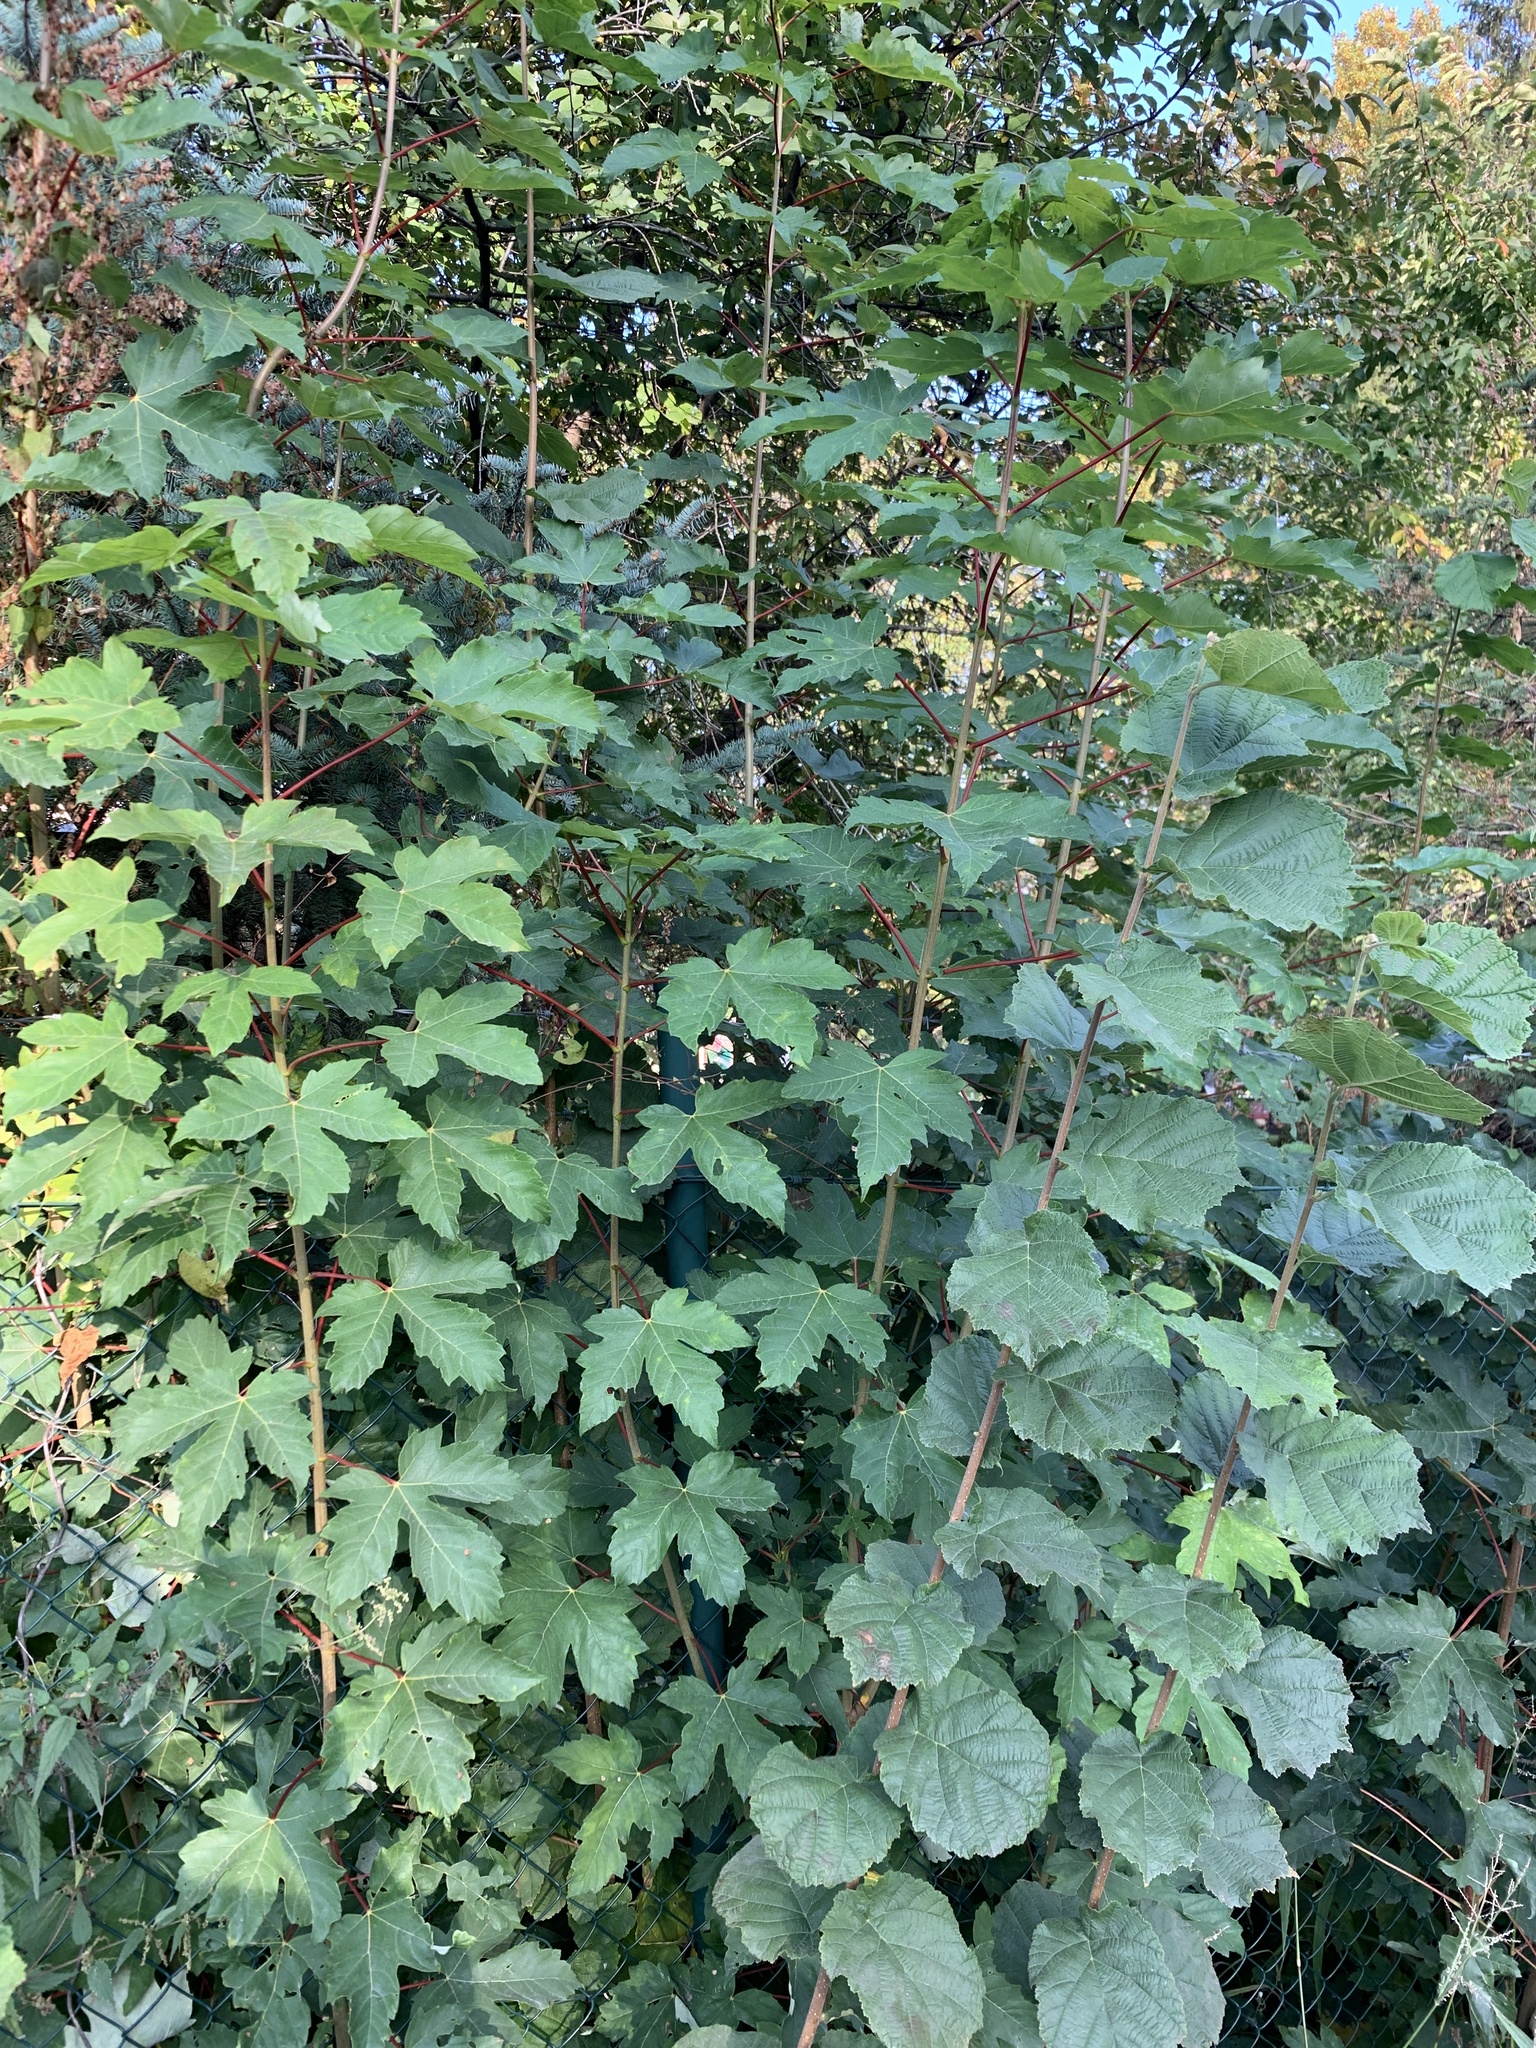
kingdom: Plantae
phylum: Tracheophyta
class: Magnoliopsida
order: Sapindales
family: Sapindaceae
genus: Acer
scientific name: Acer pseudoplatanus
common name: Sycamore
